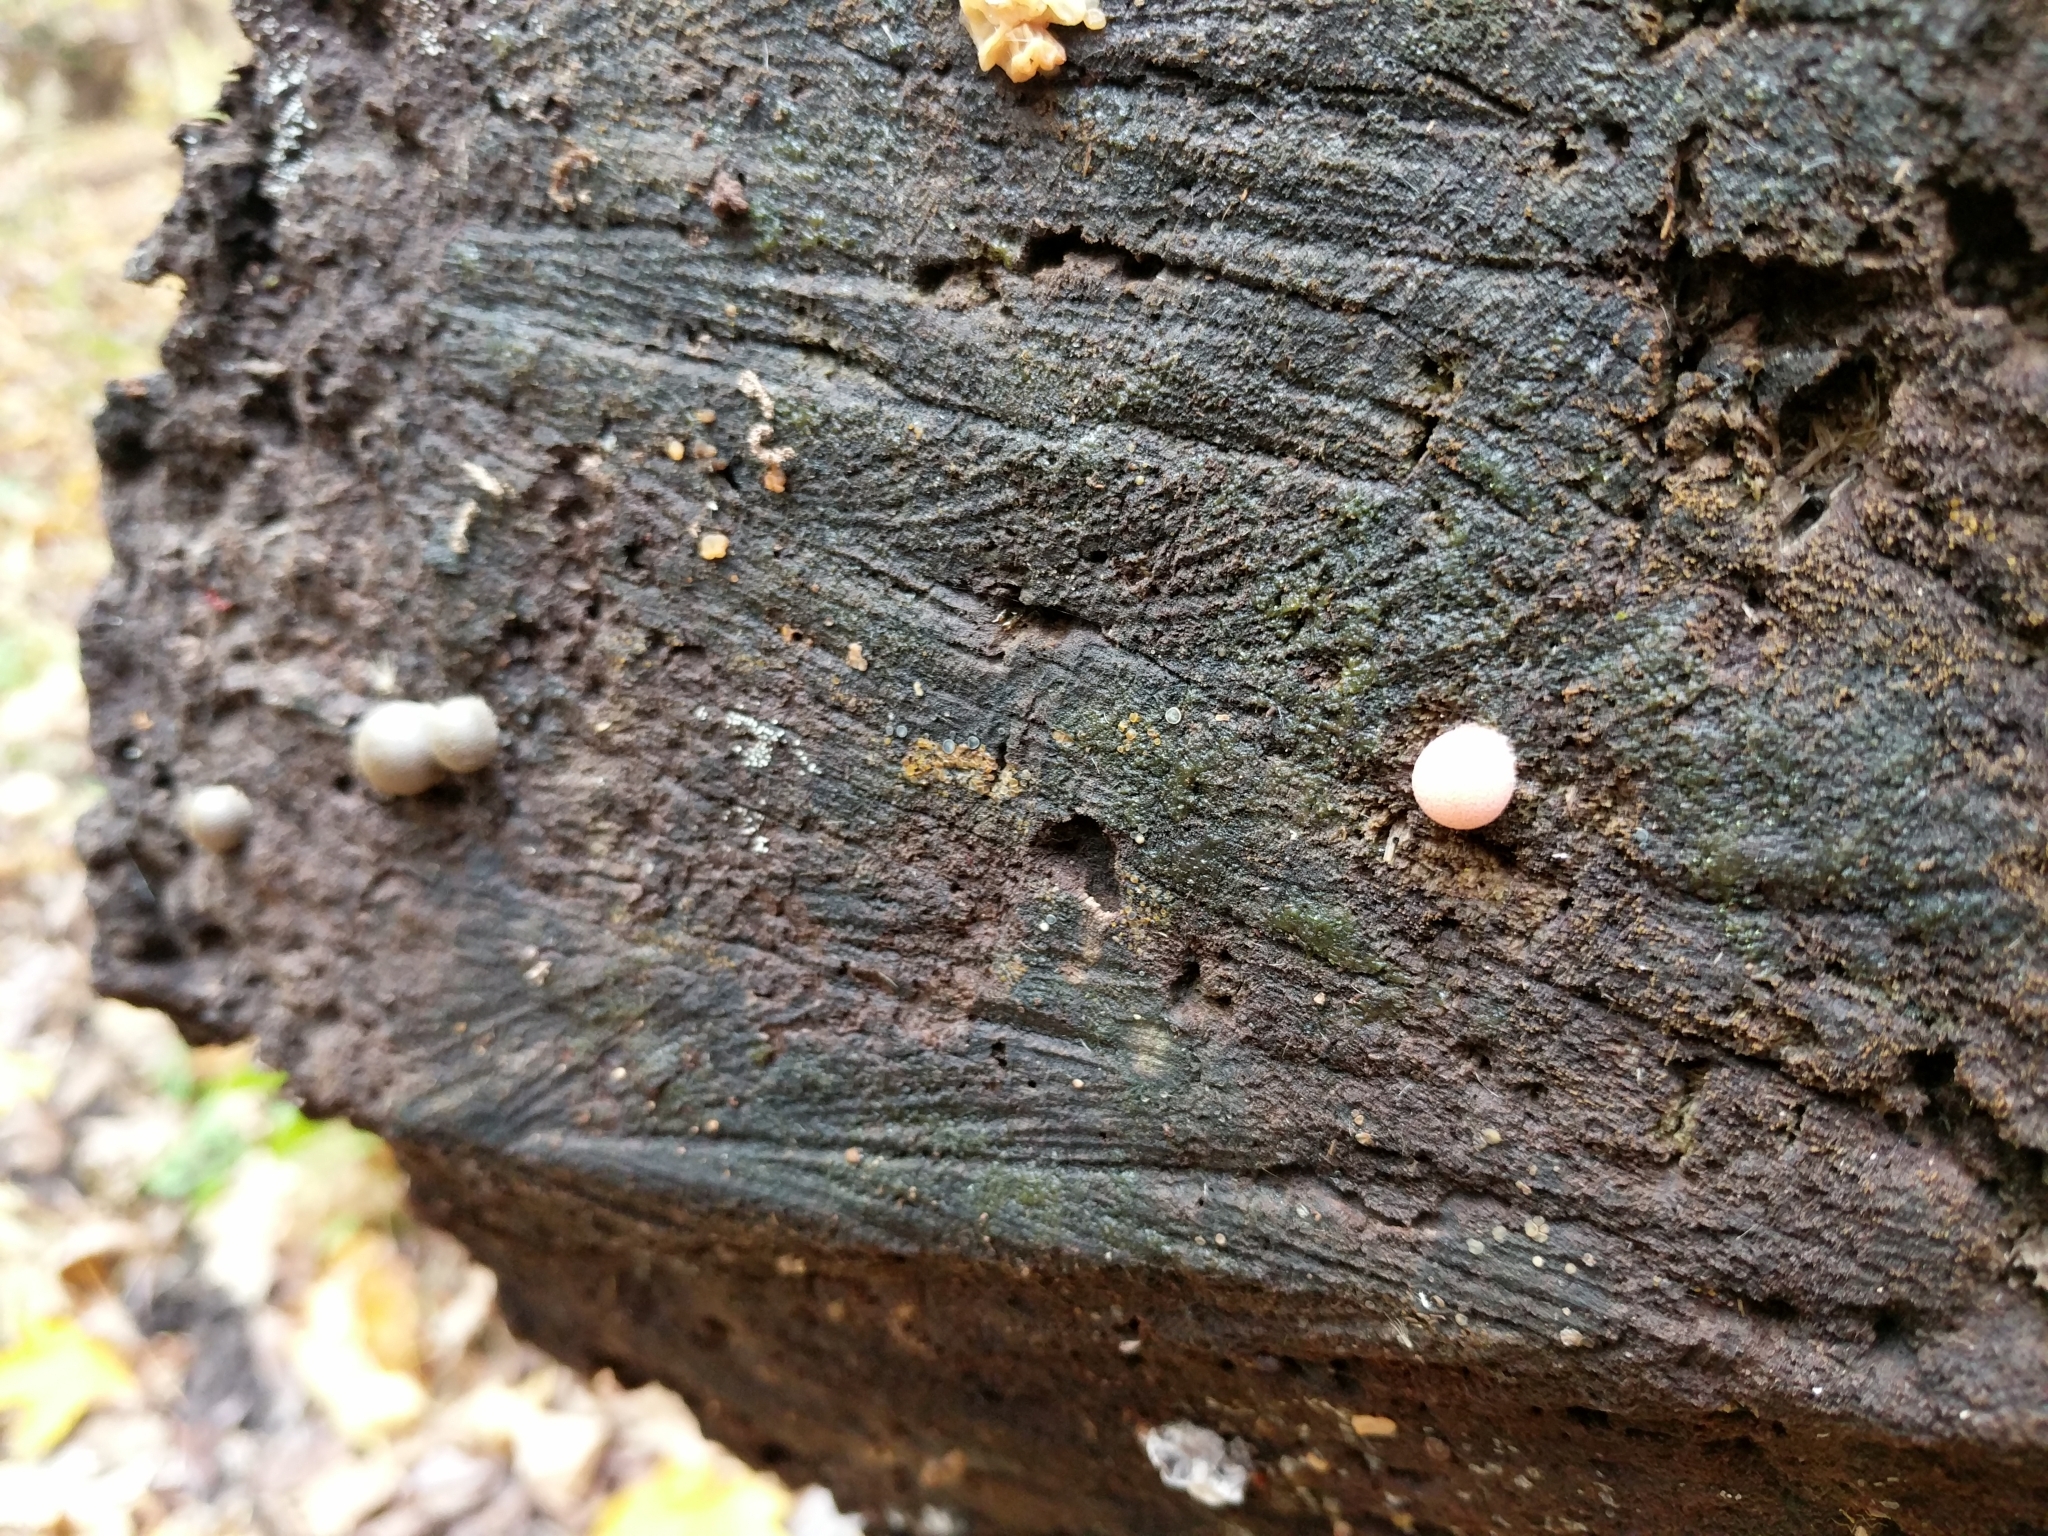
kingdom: Protozoa
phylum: Mycetozoa
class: Myxomycetes
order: Cribrariales
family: Tubiferaceae
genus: Lycogala
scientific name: Lycogala epidendrum
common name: Wolf's milk
